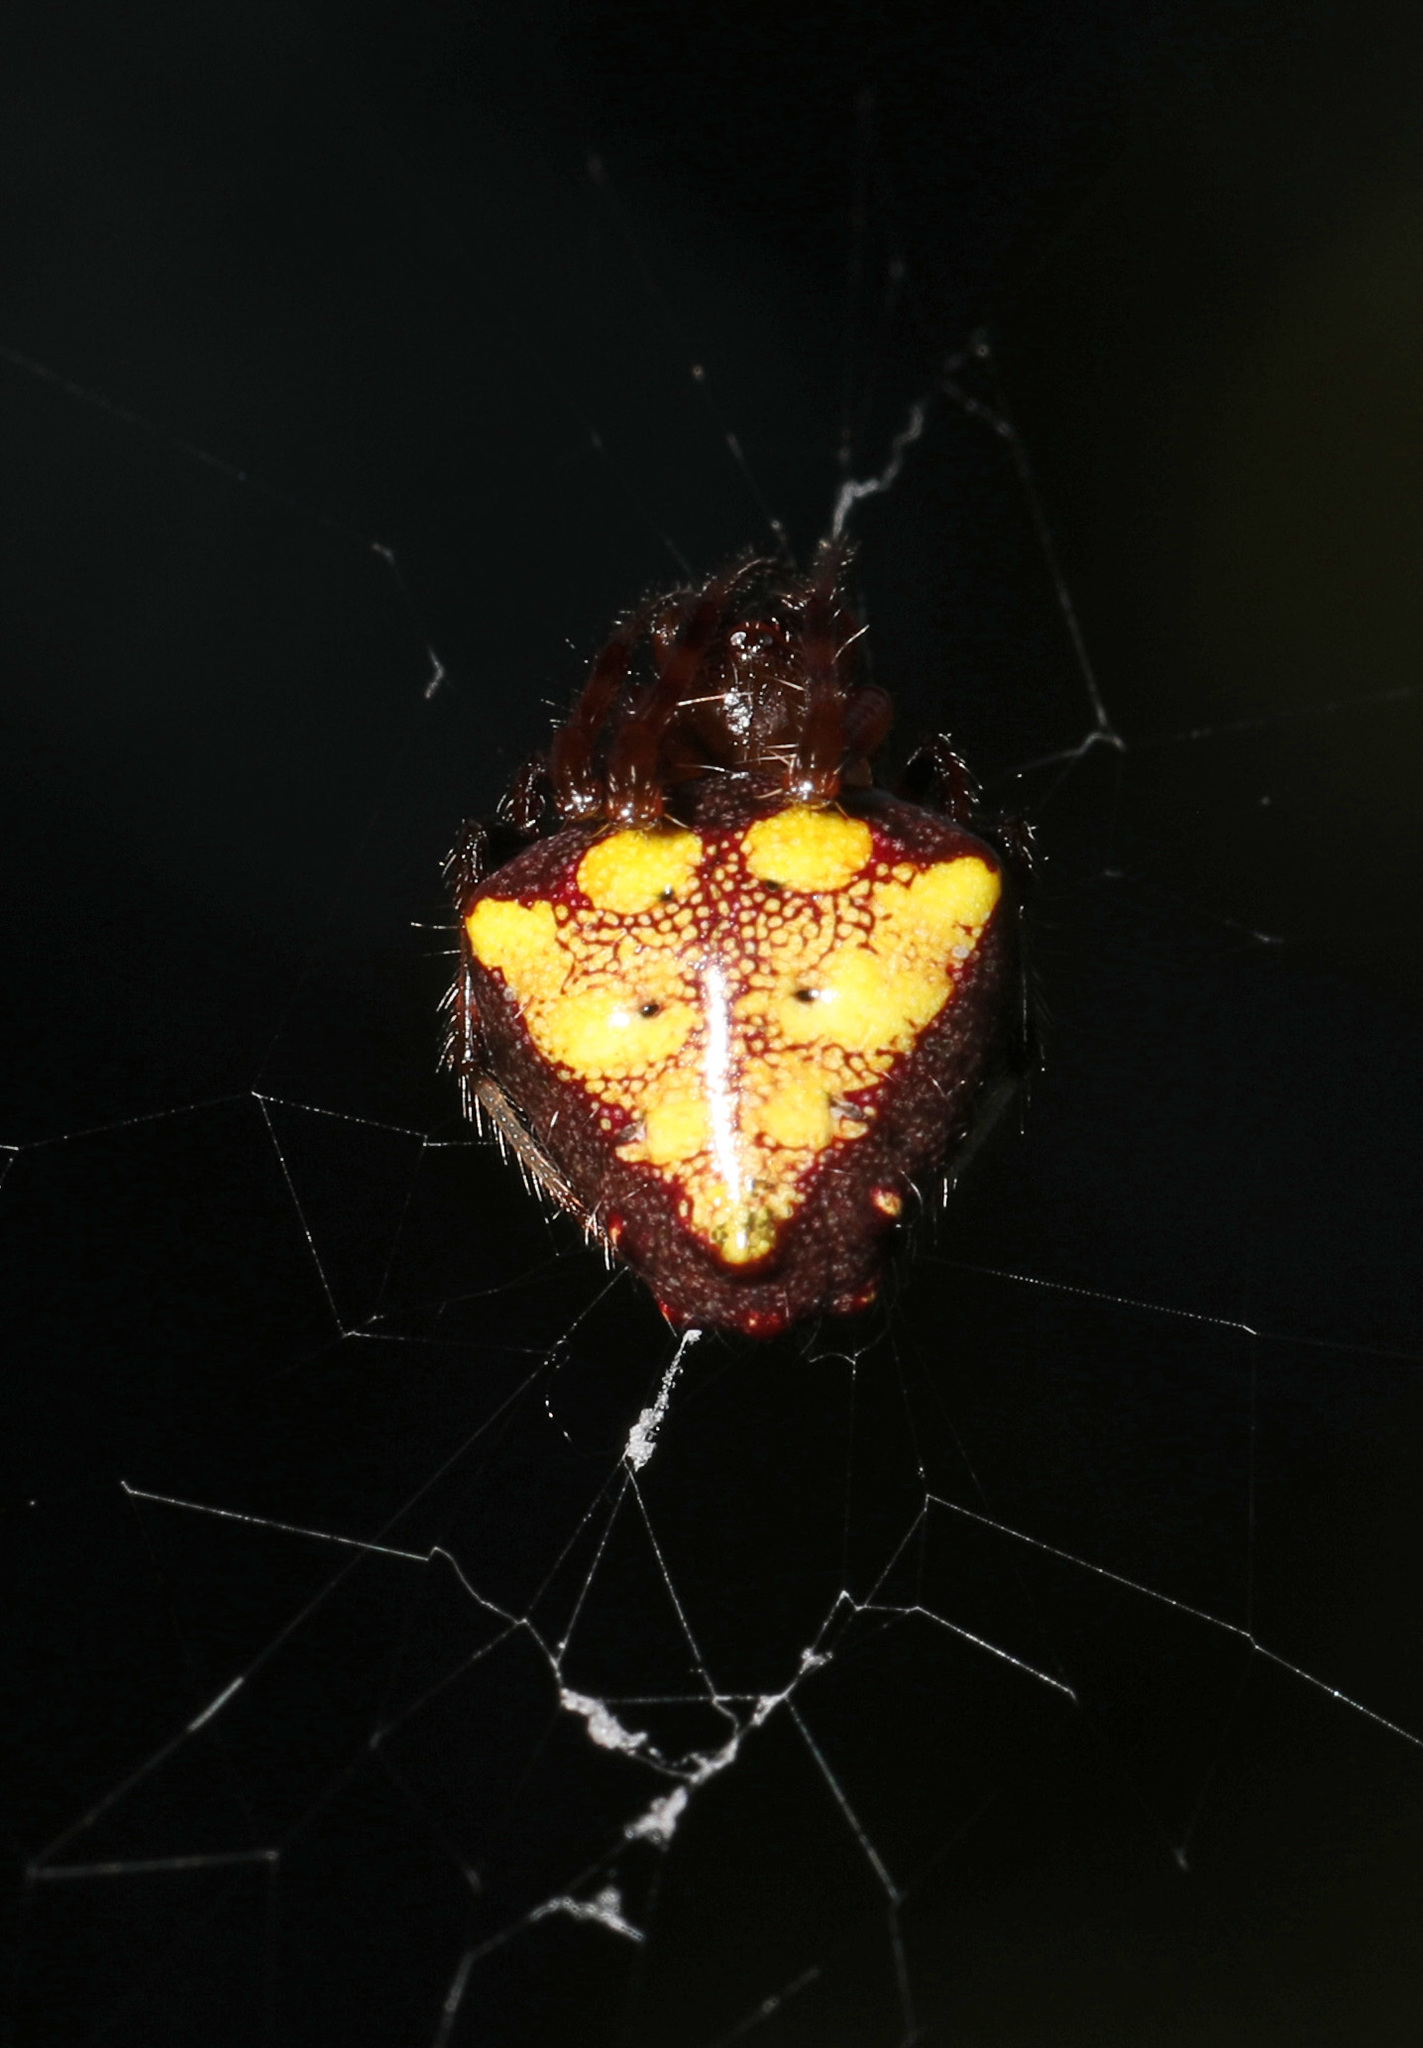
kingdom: Animalia
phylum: Arthropoda
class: Arachnida
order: Araneae
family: Araneidae
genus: Verrucosa
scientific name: Verrucosa arenata
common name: Orb weavers
